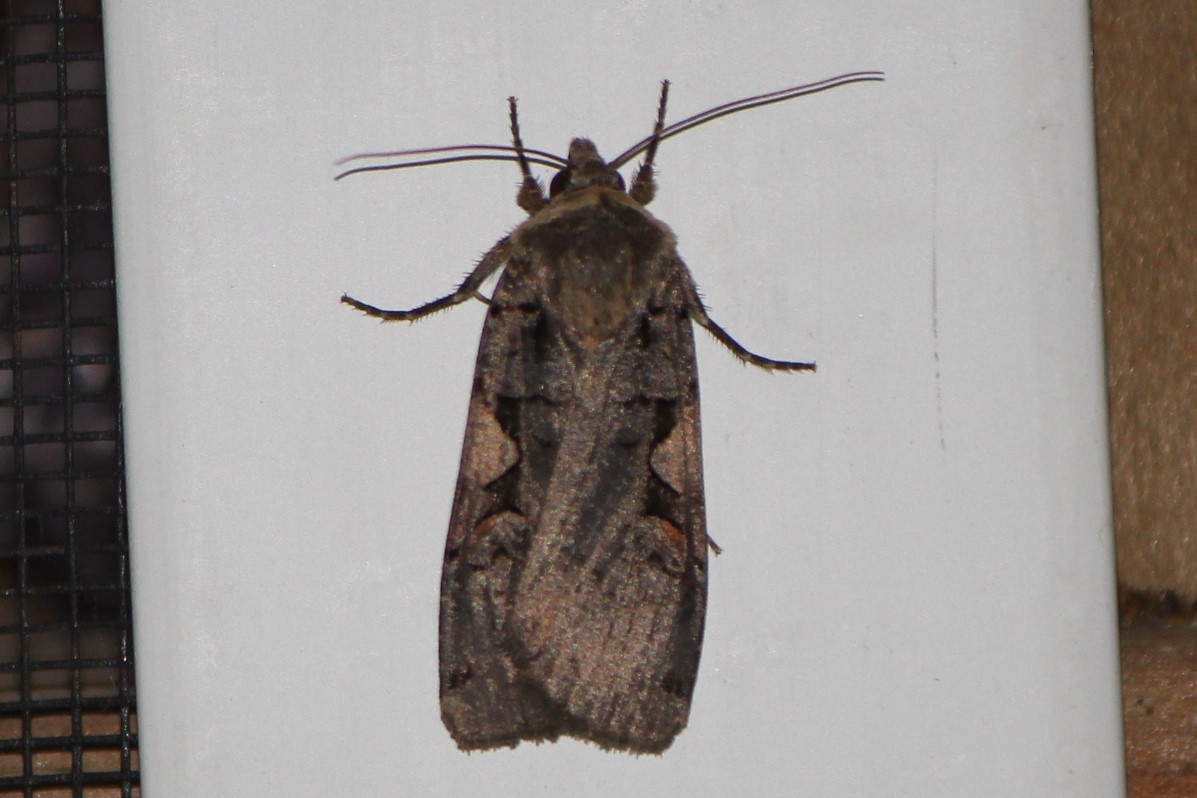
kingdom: Animalia
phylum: Arthropoda
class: Insecta
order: Lepidoptera
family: Noctuidae
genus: Xestia
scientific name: Xestia dolosa
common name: Cutworm moth
